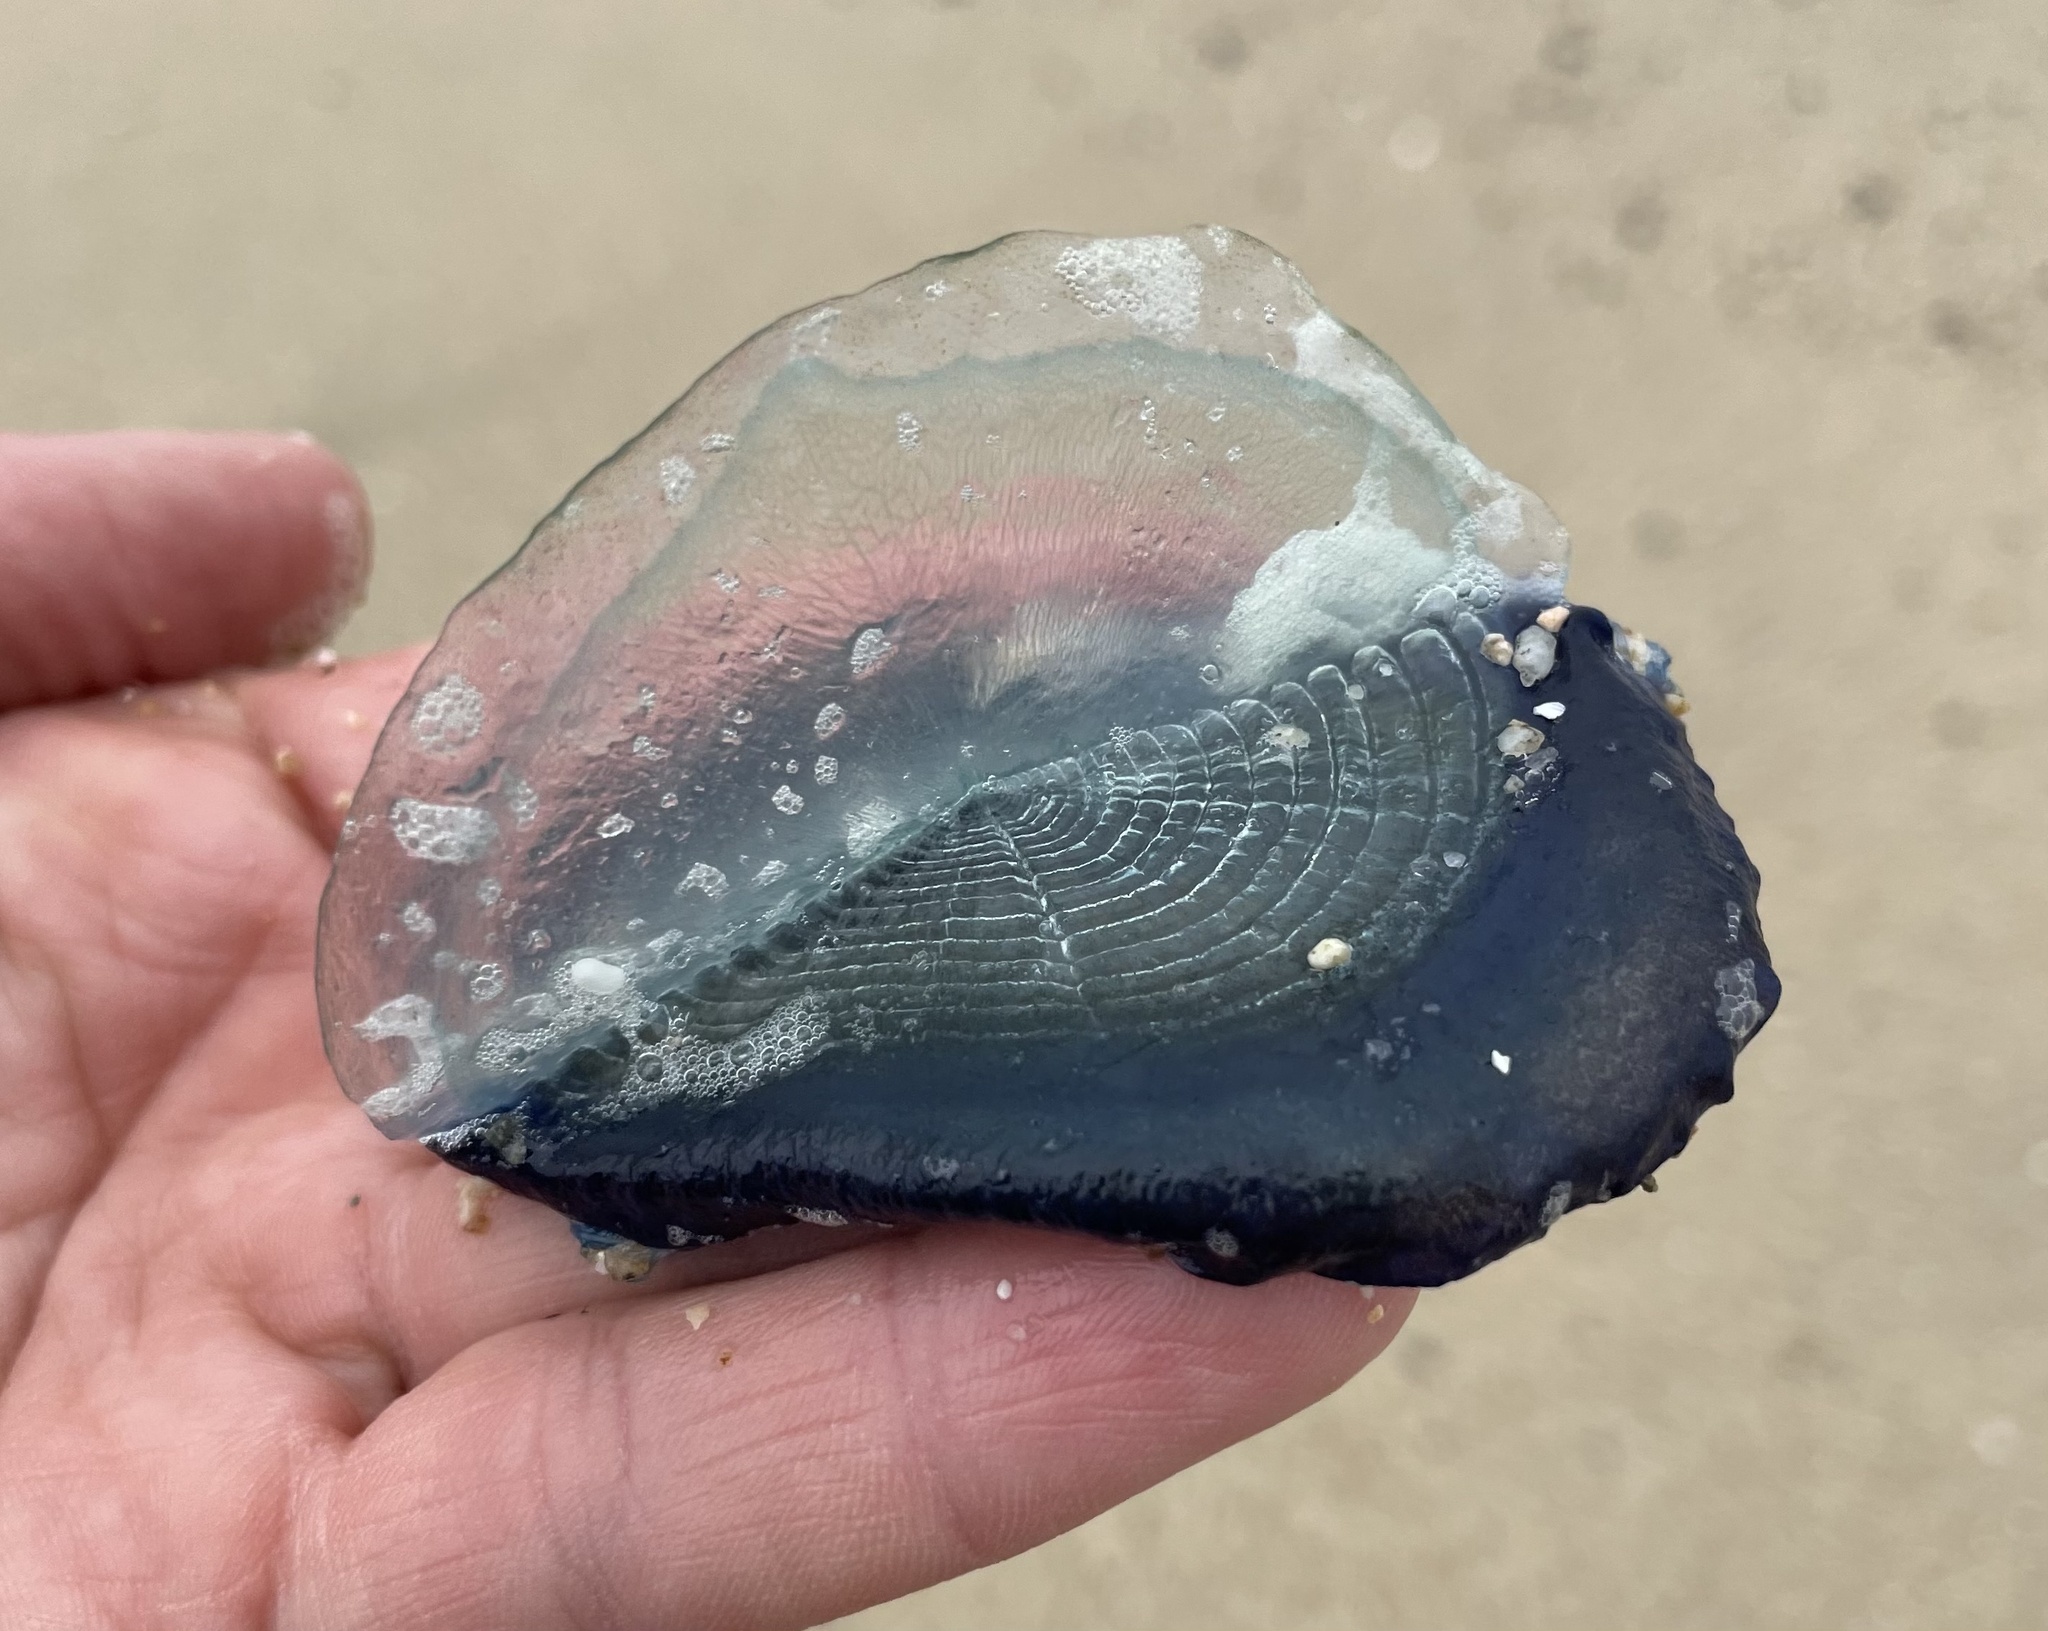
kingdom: Animalia
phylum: Cnidaria
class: Hydrozoa
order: Anthoathecata
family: Porpitidae
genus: Velella
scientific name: Velella velella
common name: By-the-wind-sailor
